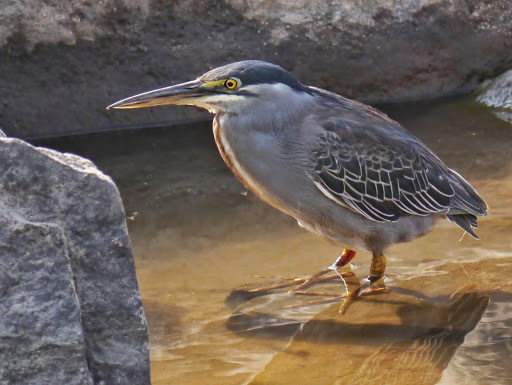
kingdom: Animalia
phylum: Chordata
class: Aves
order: Pelecaniformes
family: Ardeidae
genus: Butorides
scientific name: Butorides striata
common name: Striated heron
